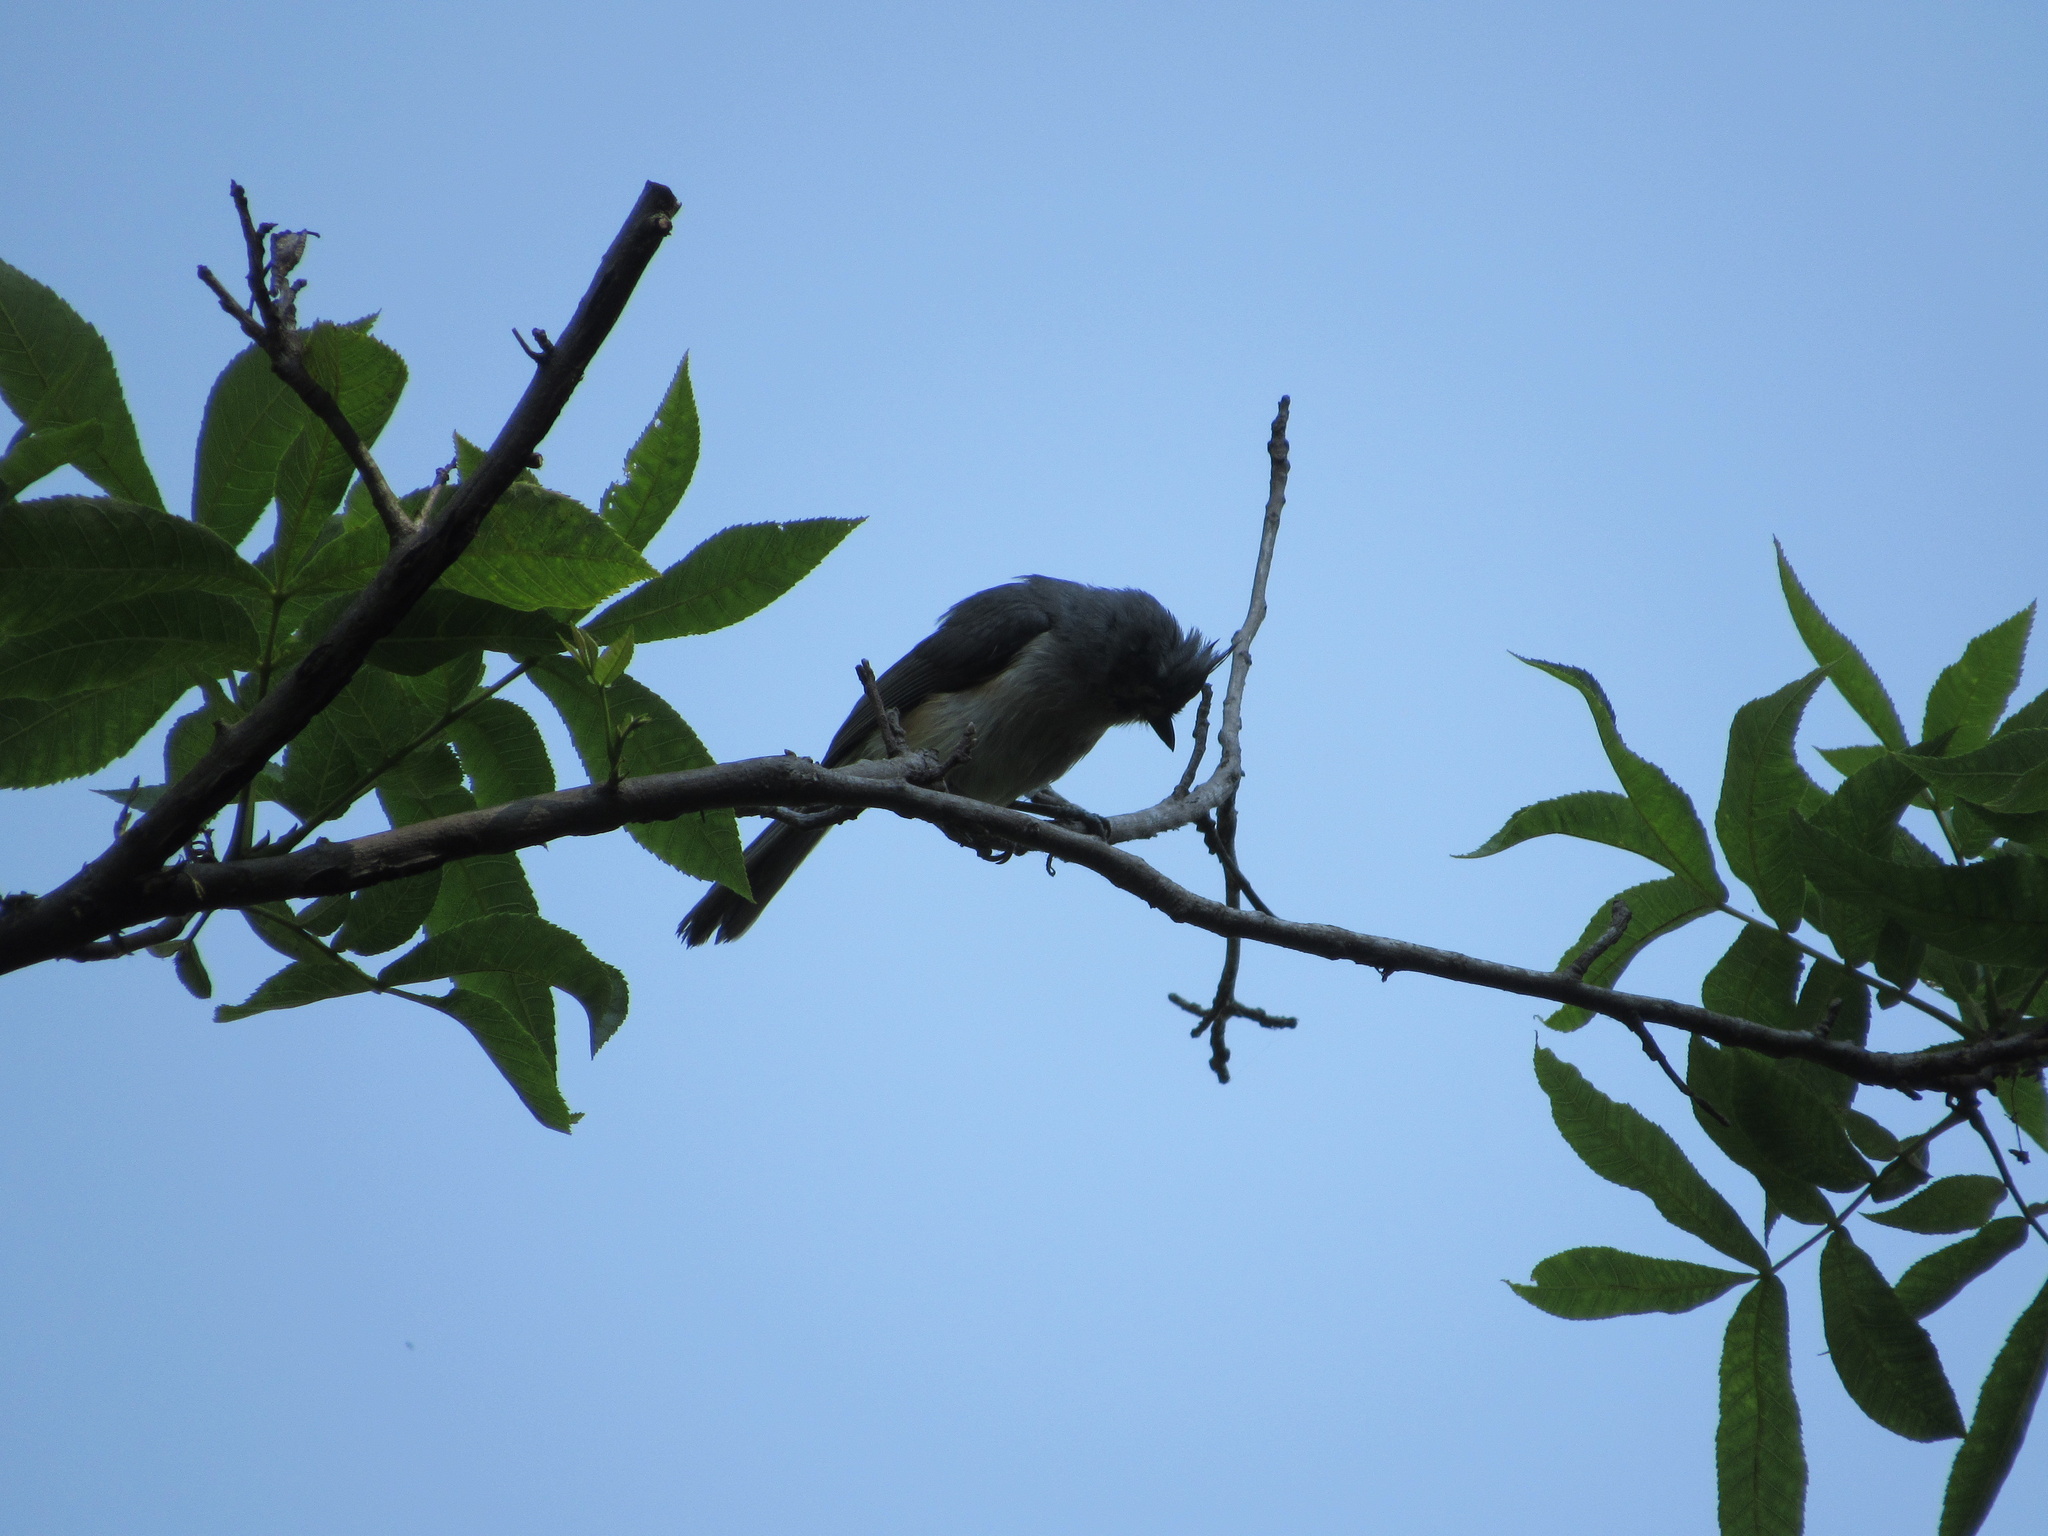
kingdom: Animalia
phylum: Chordata
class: Aves
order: Passeriformes
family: Paridae
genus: Baeolophus
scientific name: Baeolophus bicolor
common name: Tufted titmouse
